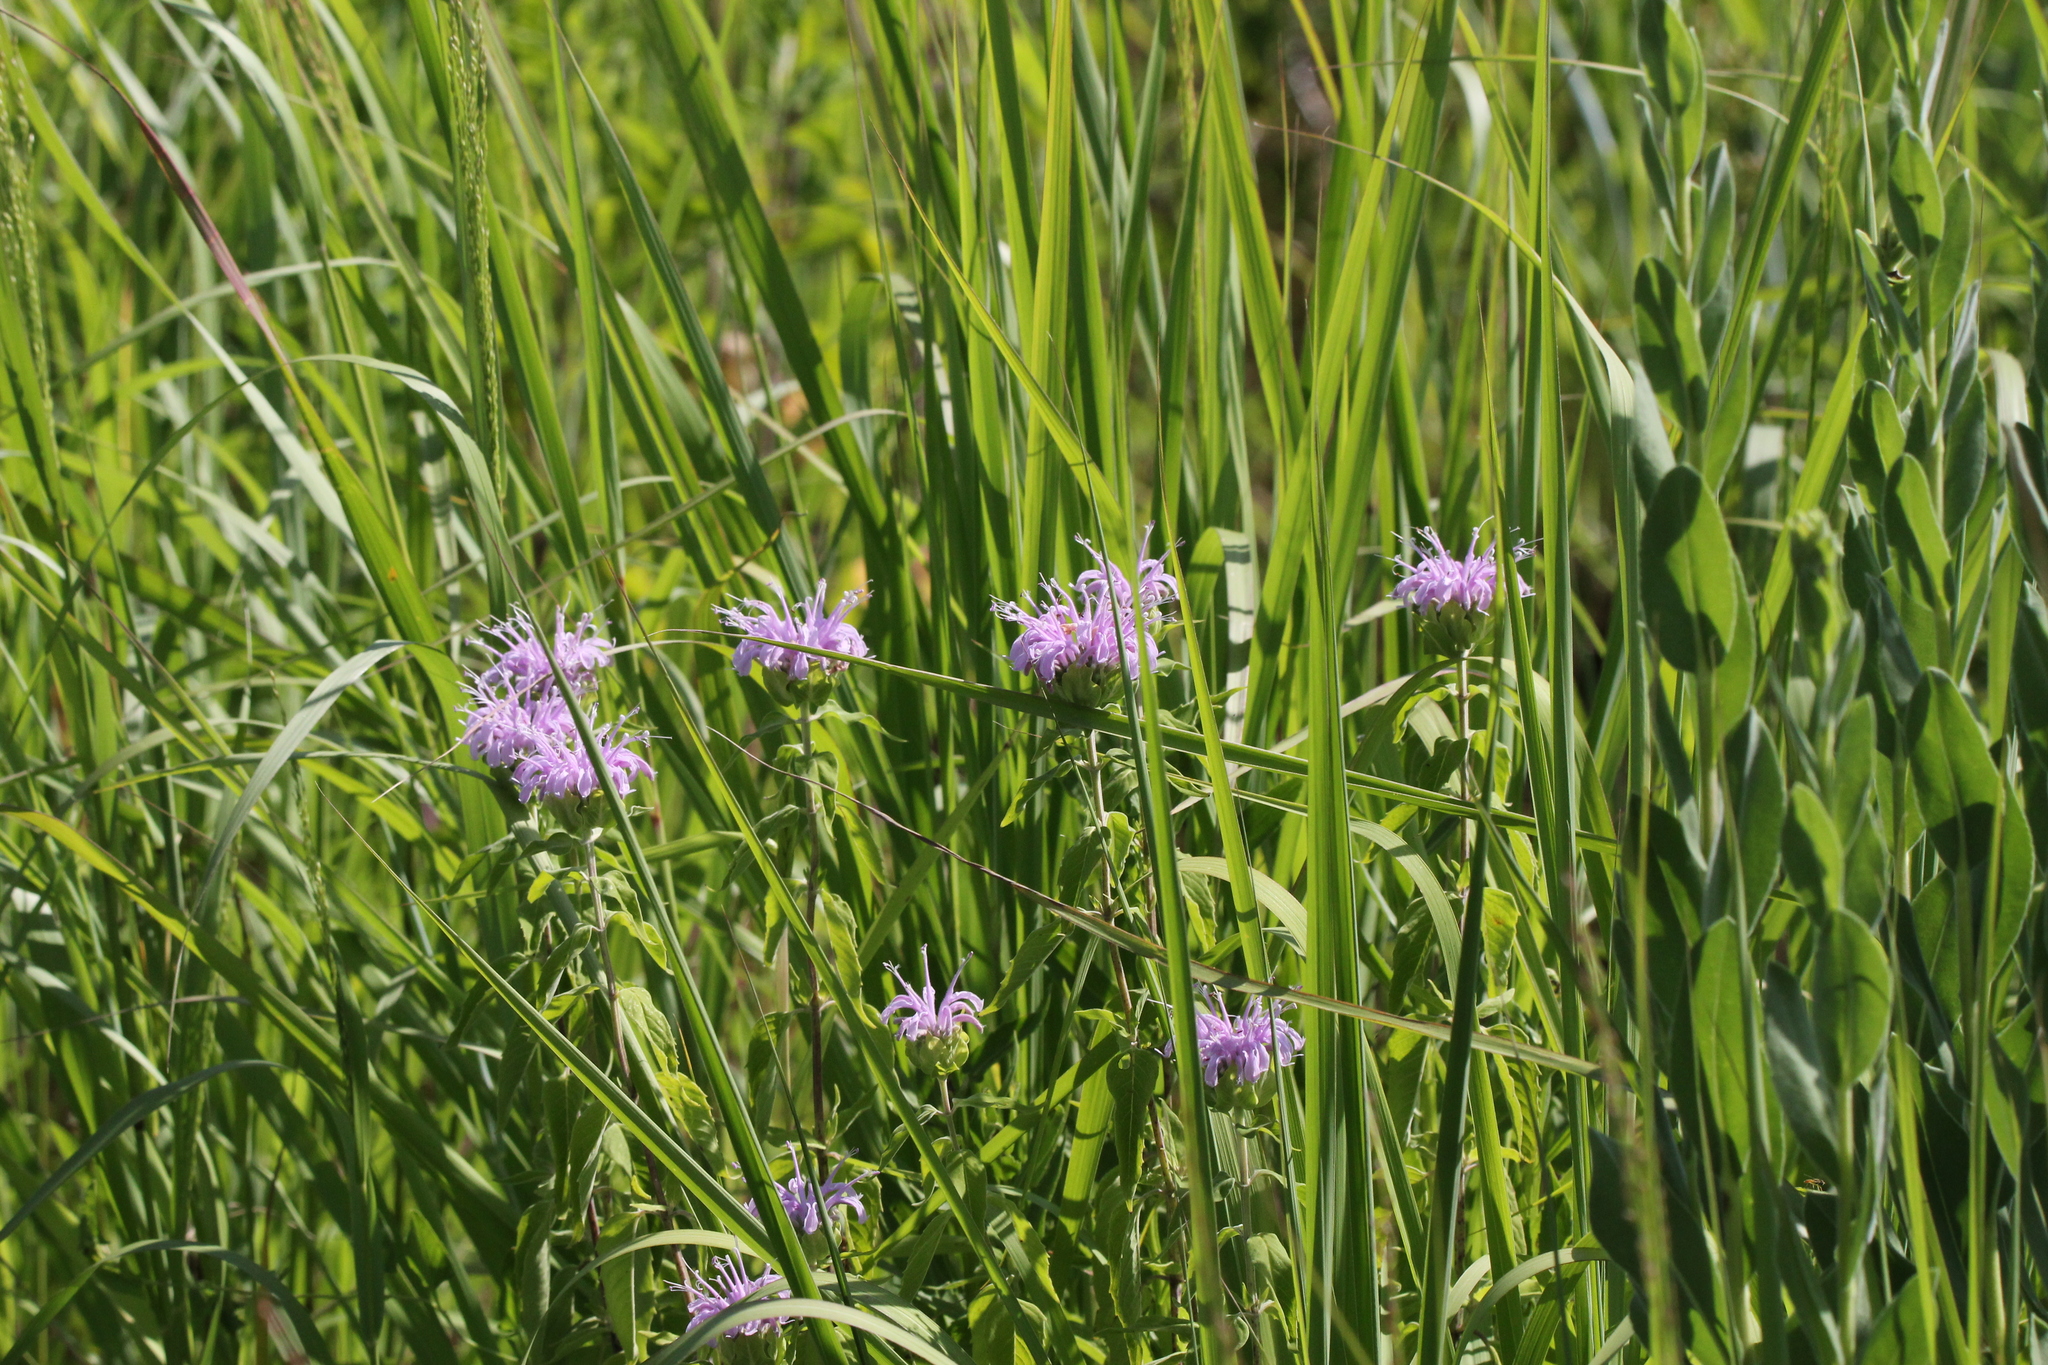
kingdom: Plantae
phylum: Tracheophyta
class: Magnoliopsida
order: Lamiales
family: Lamiaceae
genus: Monarda
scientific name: Monarda fistulosa
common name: Purple beebalm
